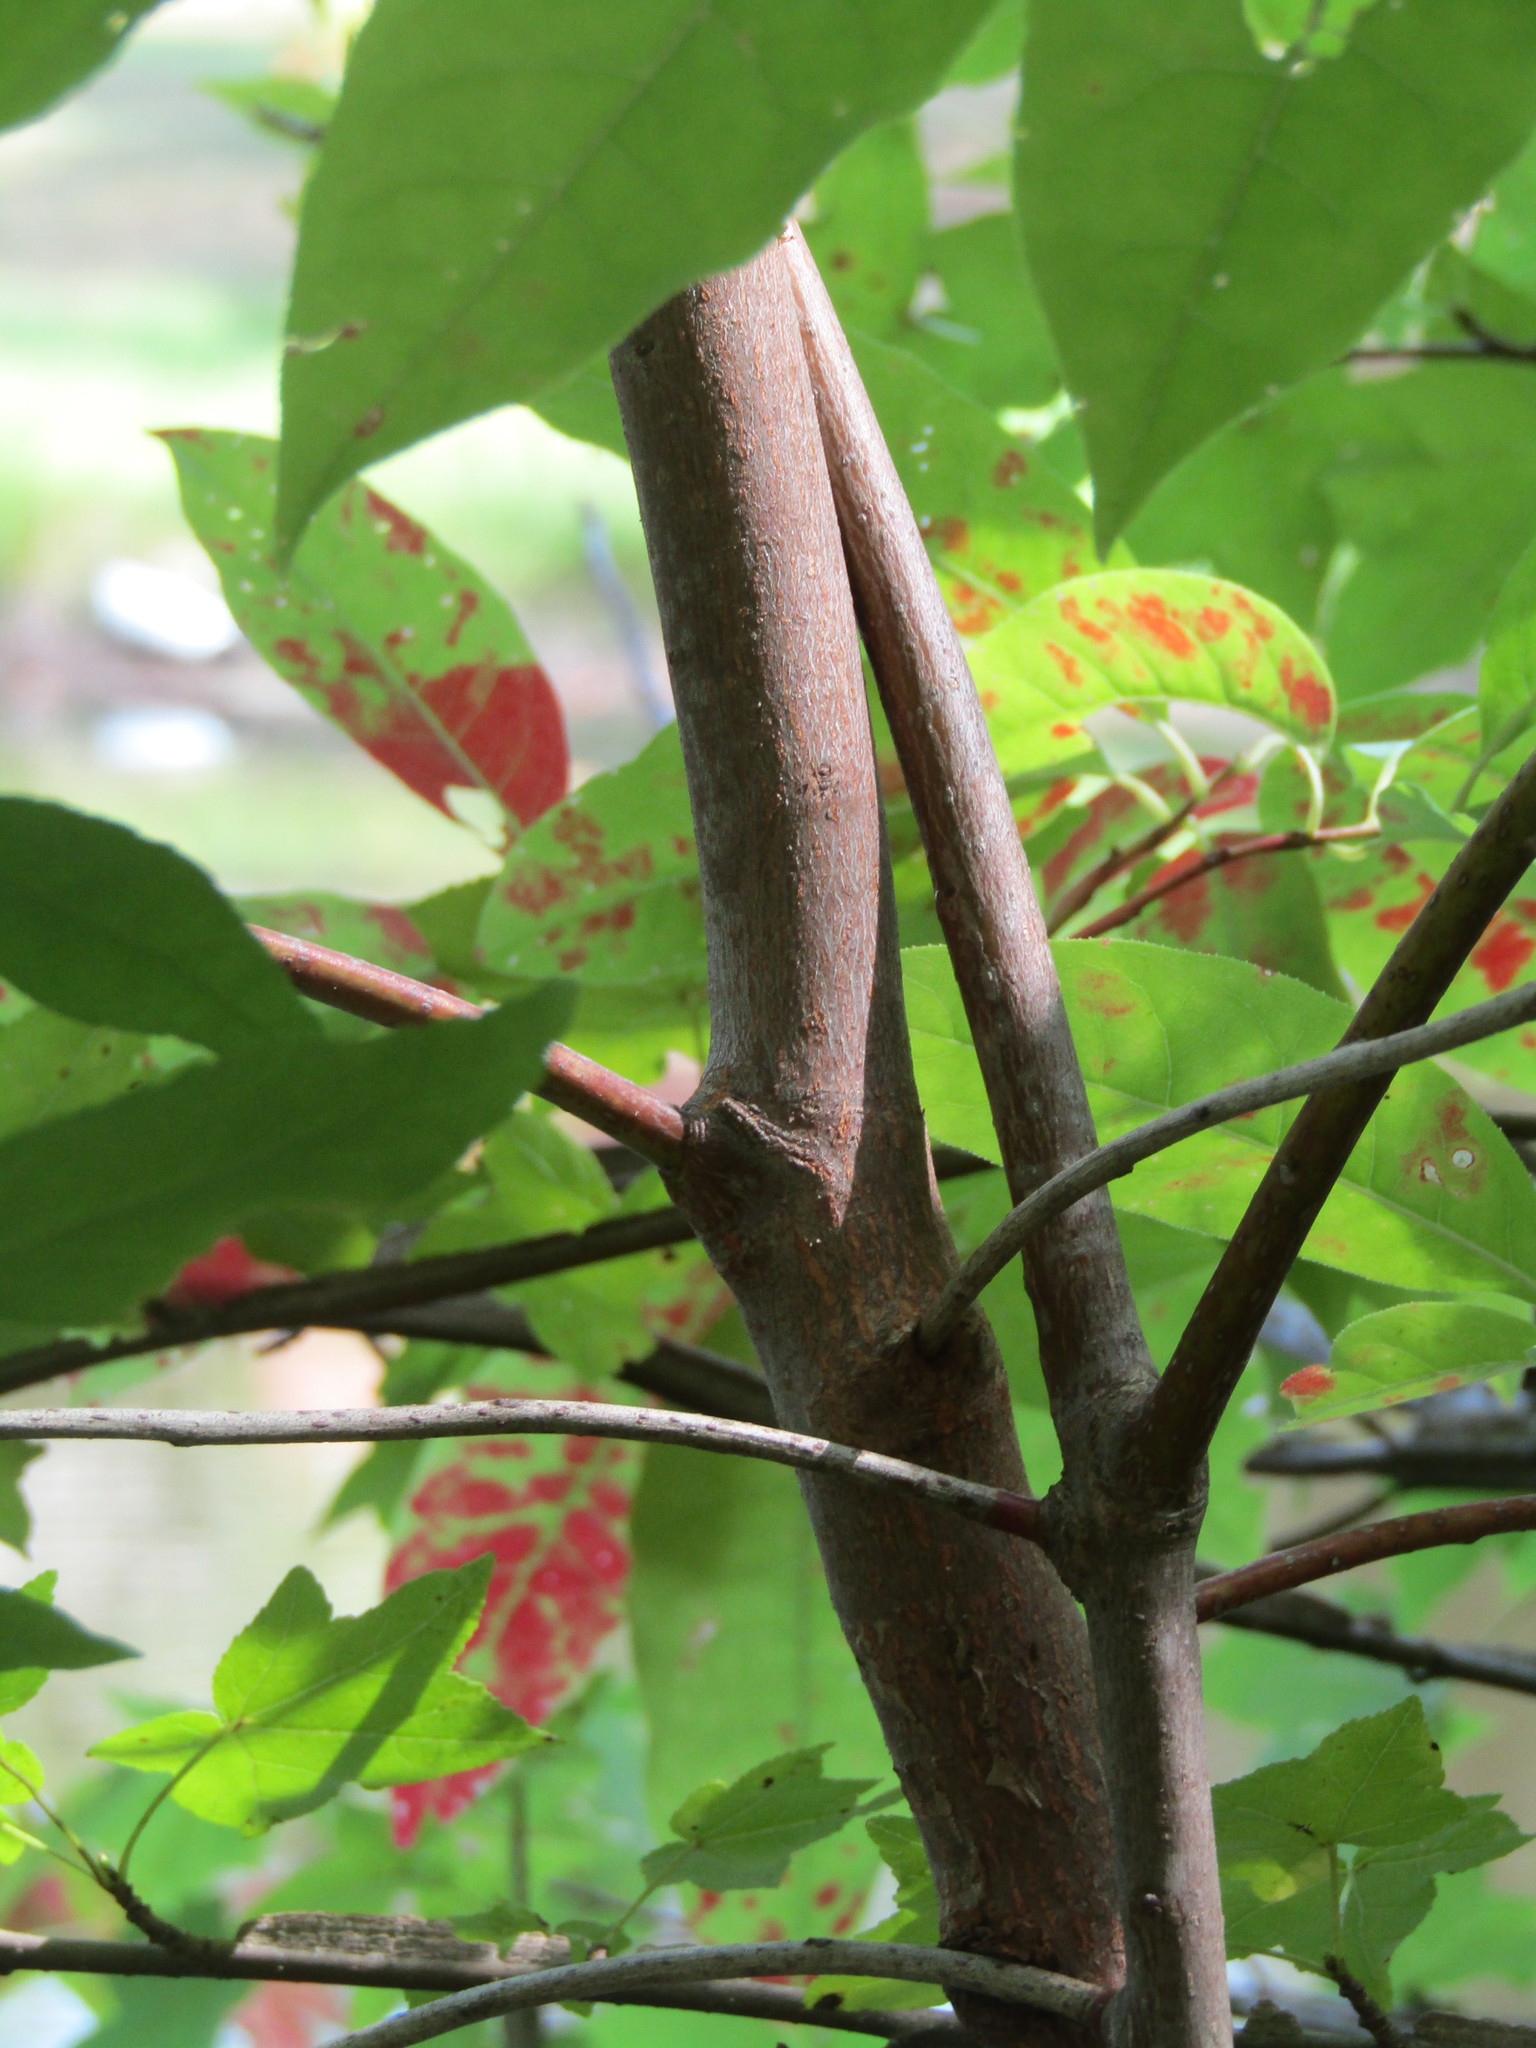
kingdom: Plantae
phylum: Tracheophyta
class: Magnoliopsida
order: Ericales
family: Ericaceae
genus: Oxydendrum
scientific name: Oxydendrum arboreum
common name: Sourwood
